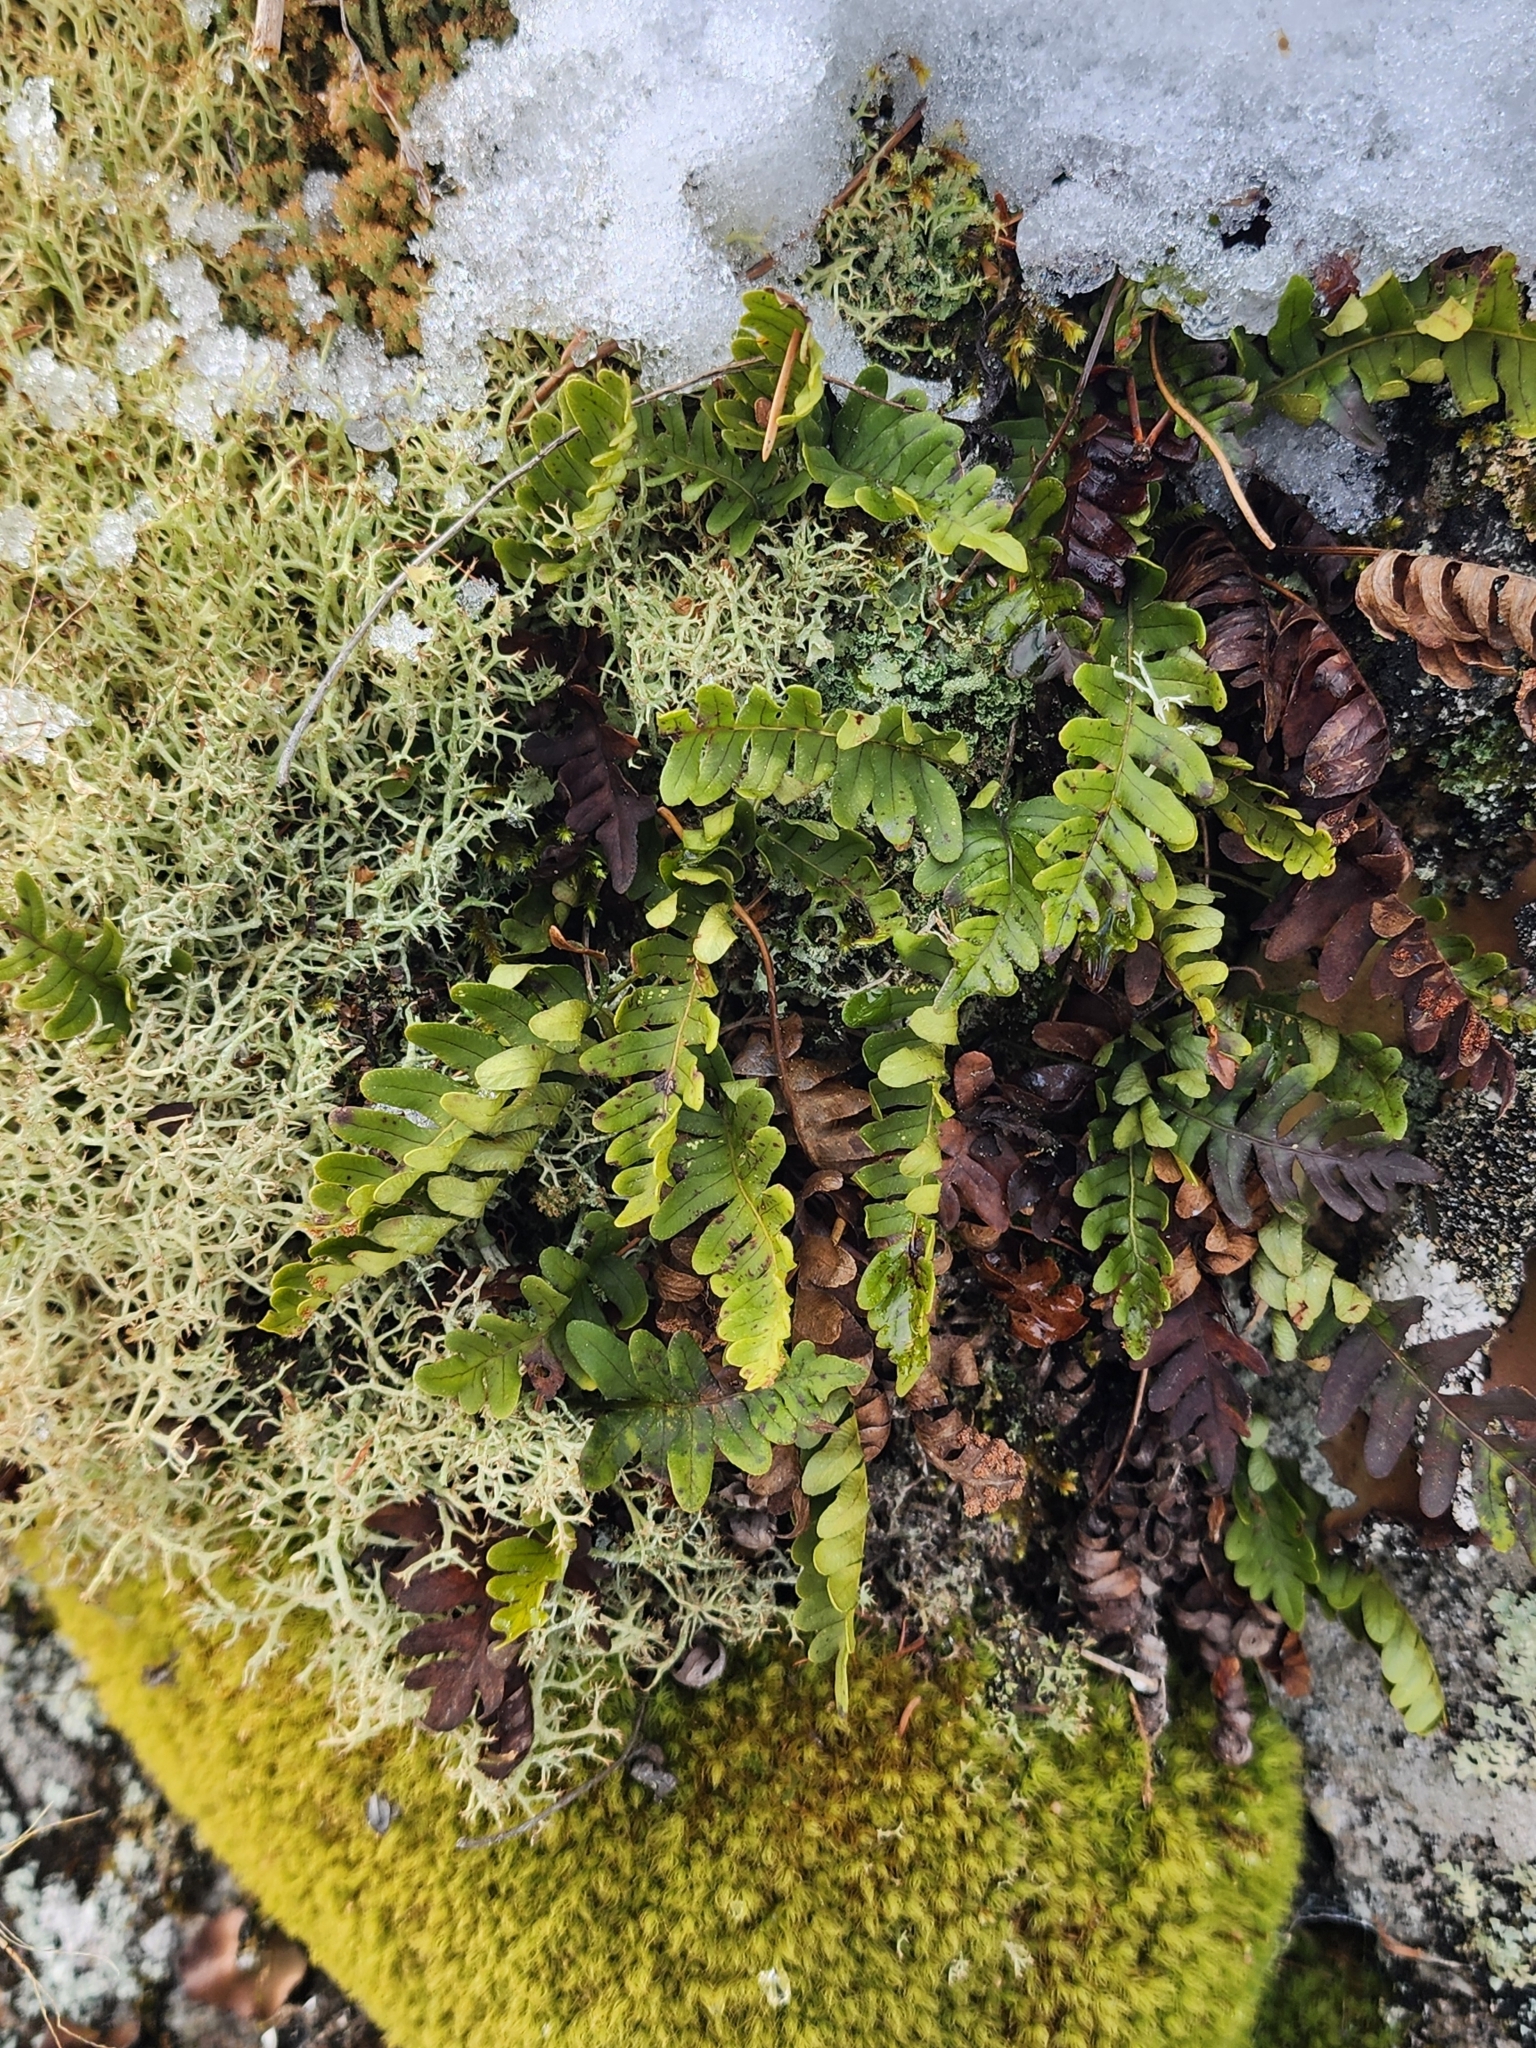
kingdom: Plantae
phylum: Tracheophyta
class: Polypodiopsida
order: Polypodiales
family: Polypodiaceae
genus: Polypodium
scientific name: Polypodium virginianum
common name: American wall fern
